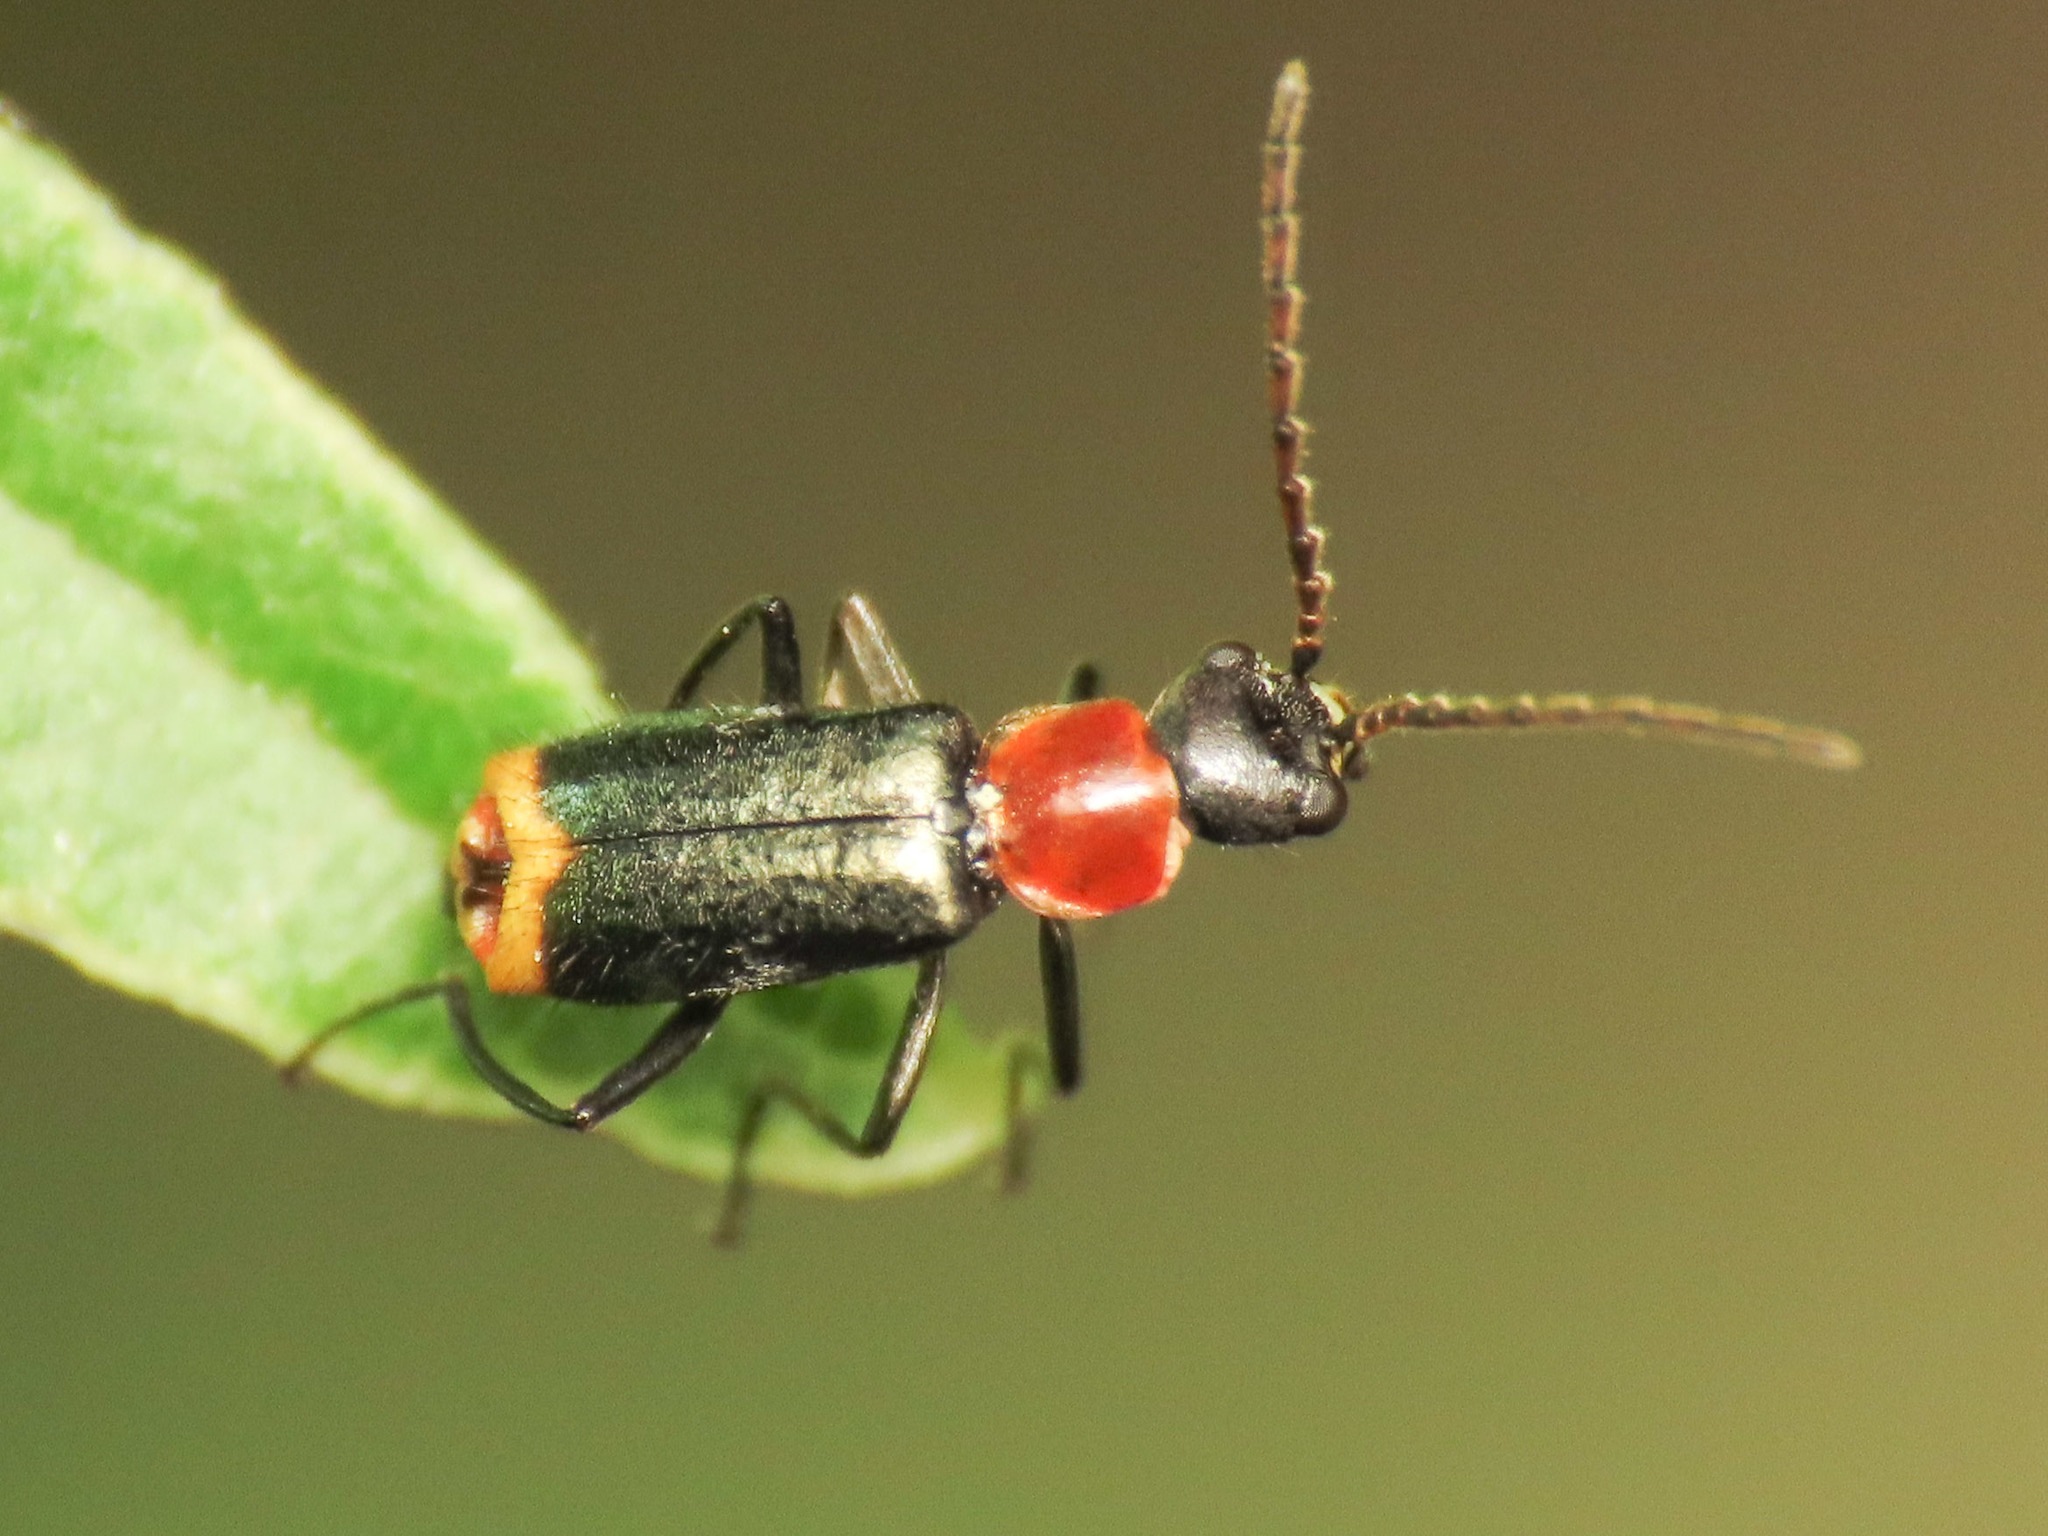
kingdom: Animalia
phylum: Arthropoda
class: Insecta
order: Coleoptera
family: Melyridae
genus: Axinotarsus
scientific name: Axinotarsus ruficollis
